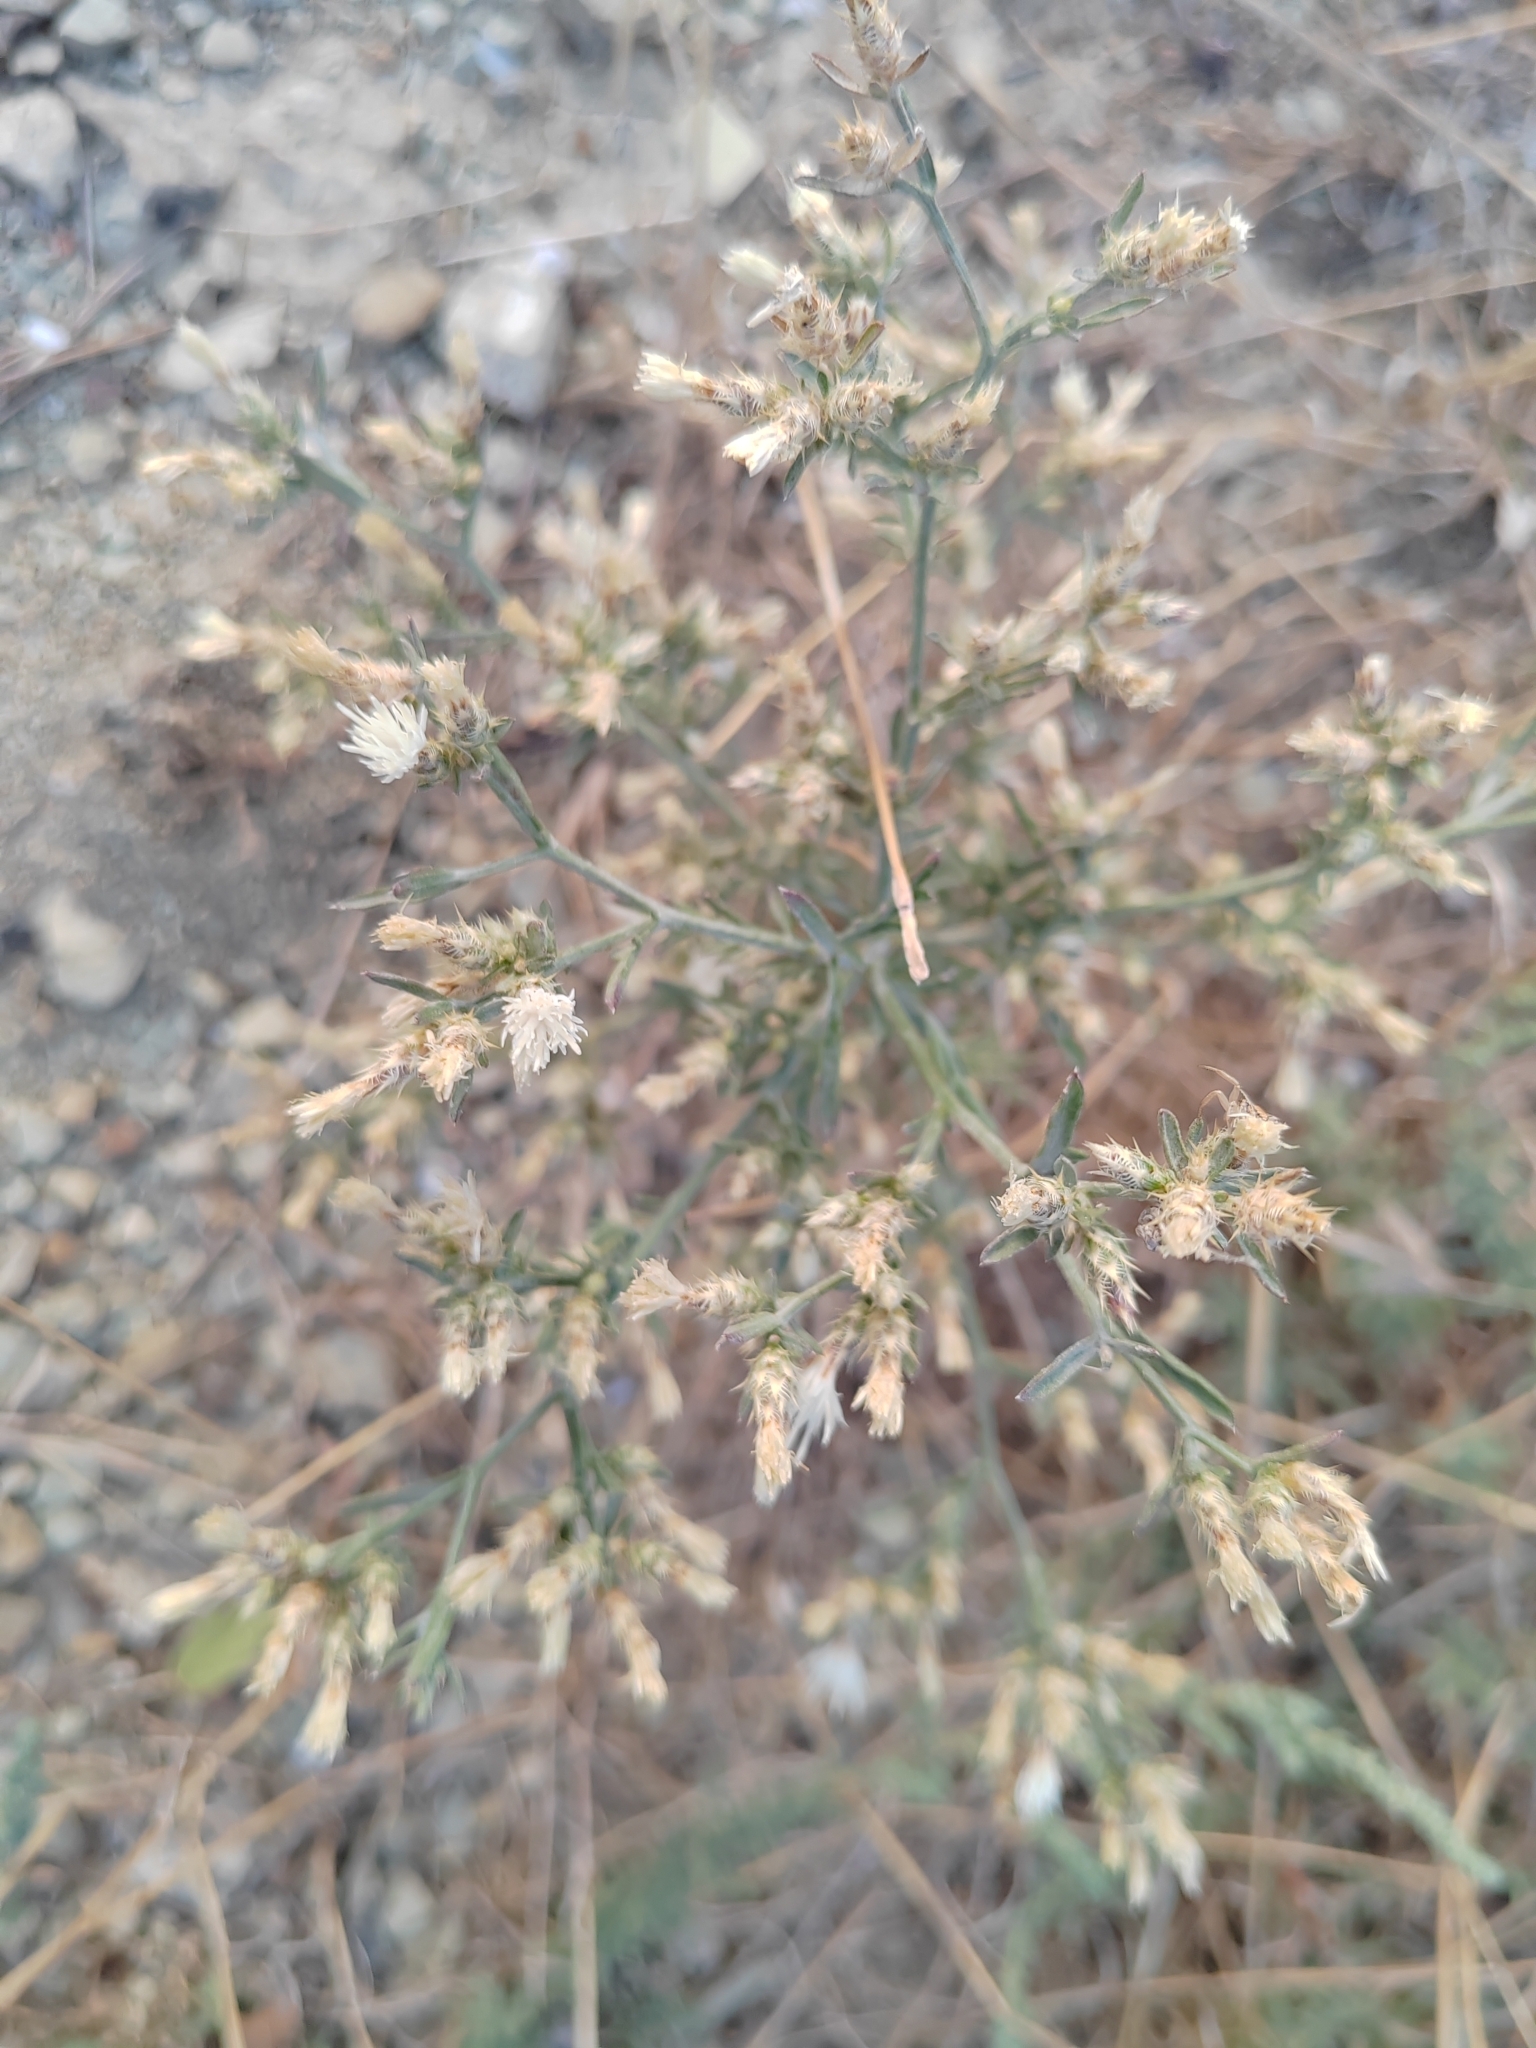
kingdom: Plantae
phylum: Tracheophyta
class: Magnoliopsida
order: Asterales
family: Asteraceae
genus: Centaurea
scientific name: Centaurea diffusa
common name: Diffuse knapweed
